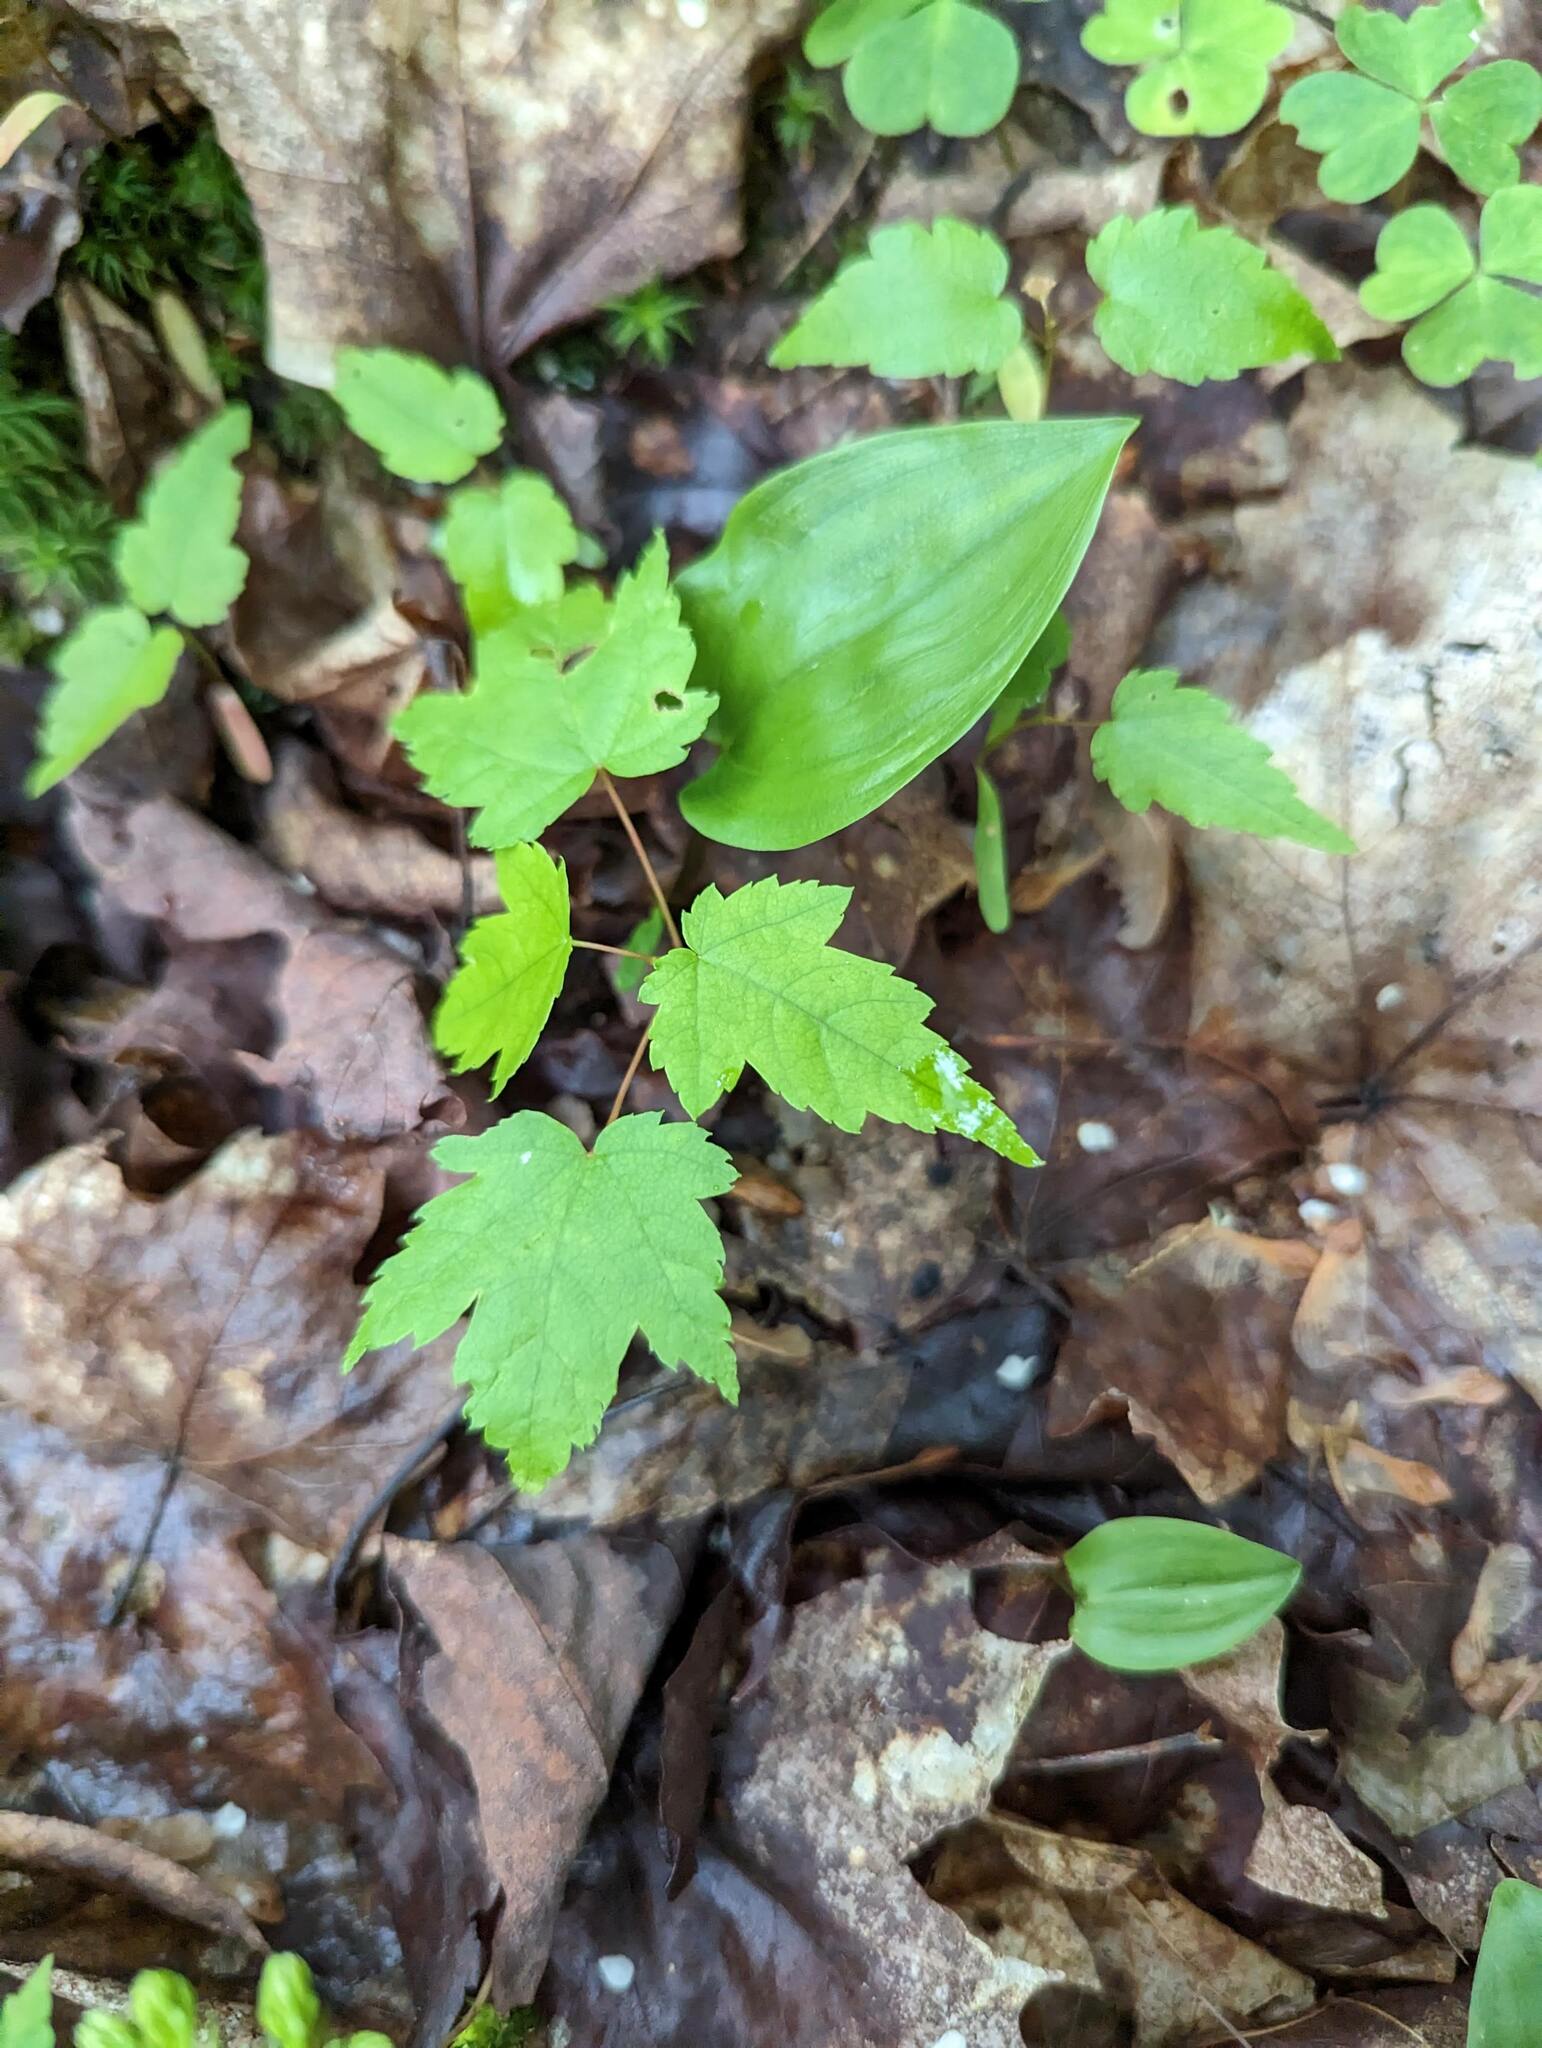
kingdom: Plantae
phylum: Tracheophyta
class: Magnoliopsida
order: Sapindales
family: Sapindaceae
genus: Acer
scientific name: Acer rubrum
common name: Red maple
